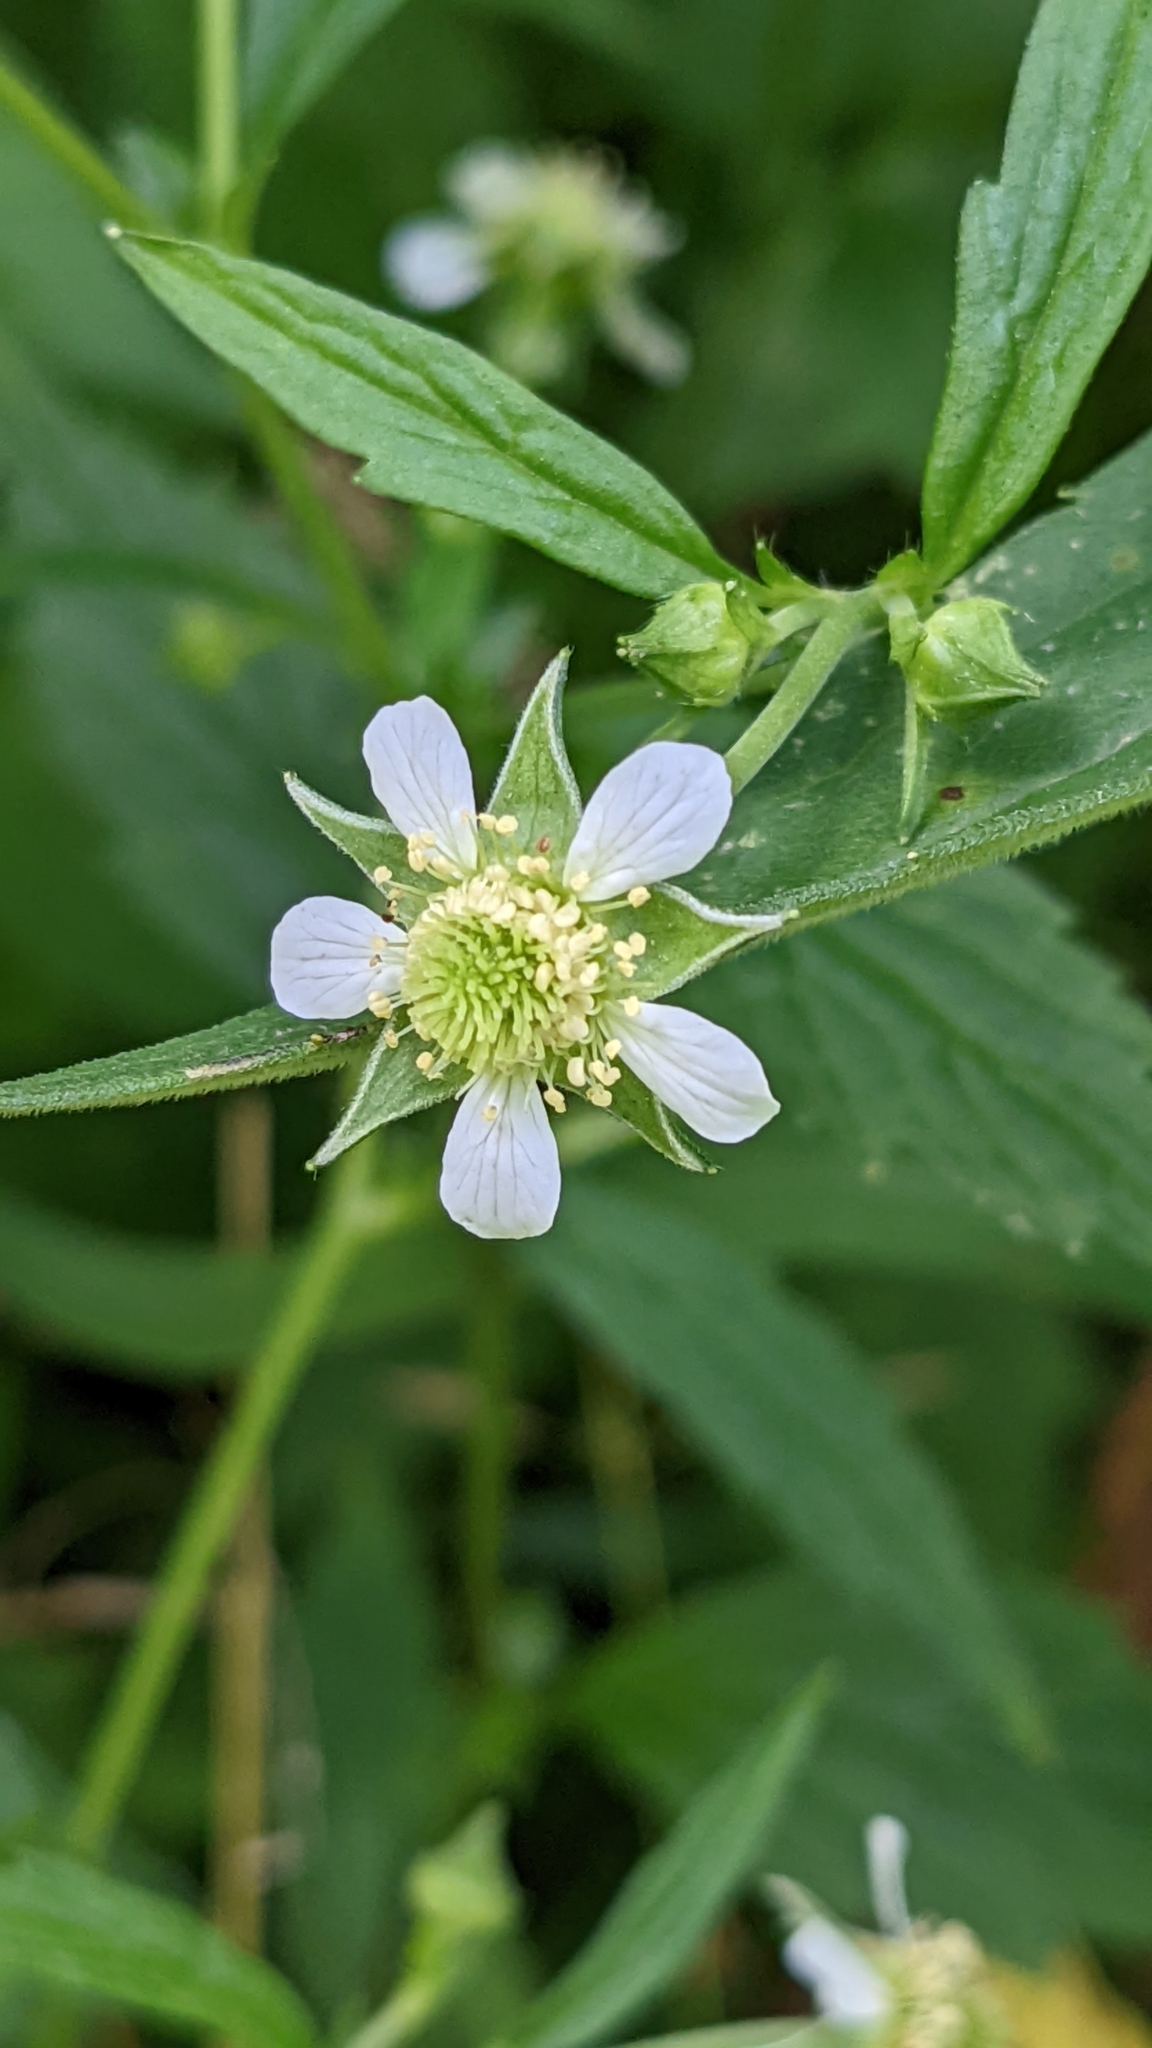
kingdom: Plantae
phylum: Tracheophyta
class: Magnoliopsida
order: Rosales
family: Rosaceae
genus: Geum
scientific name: Geum canadense
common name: White avens
